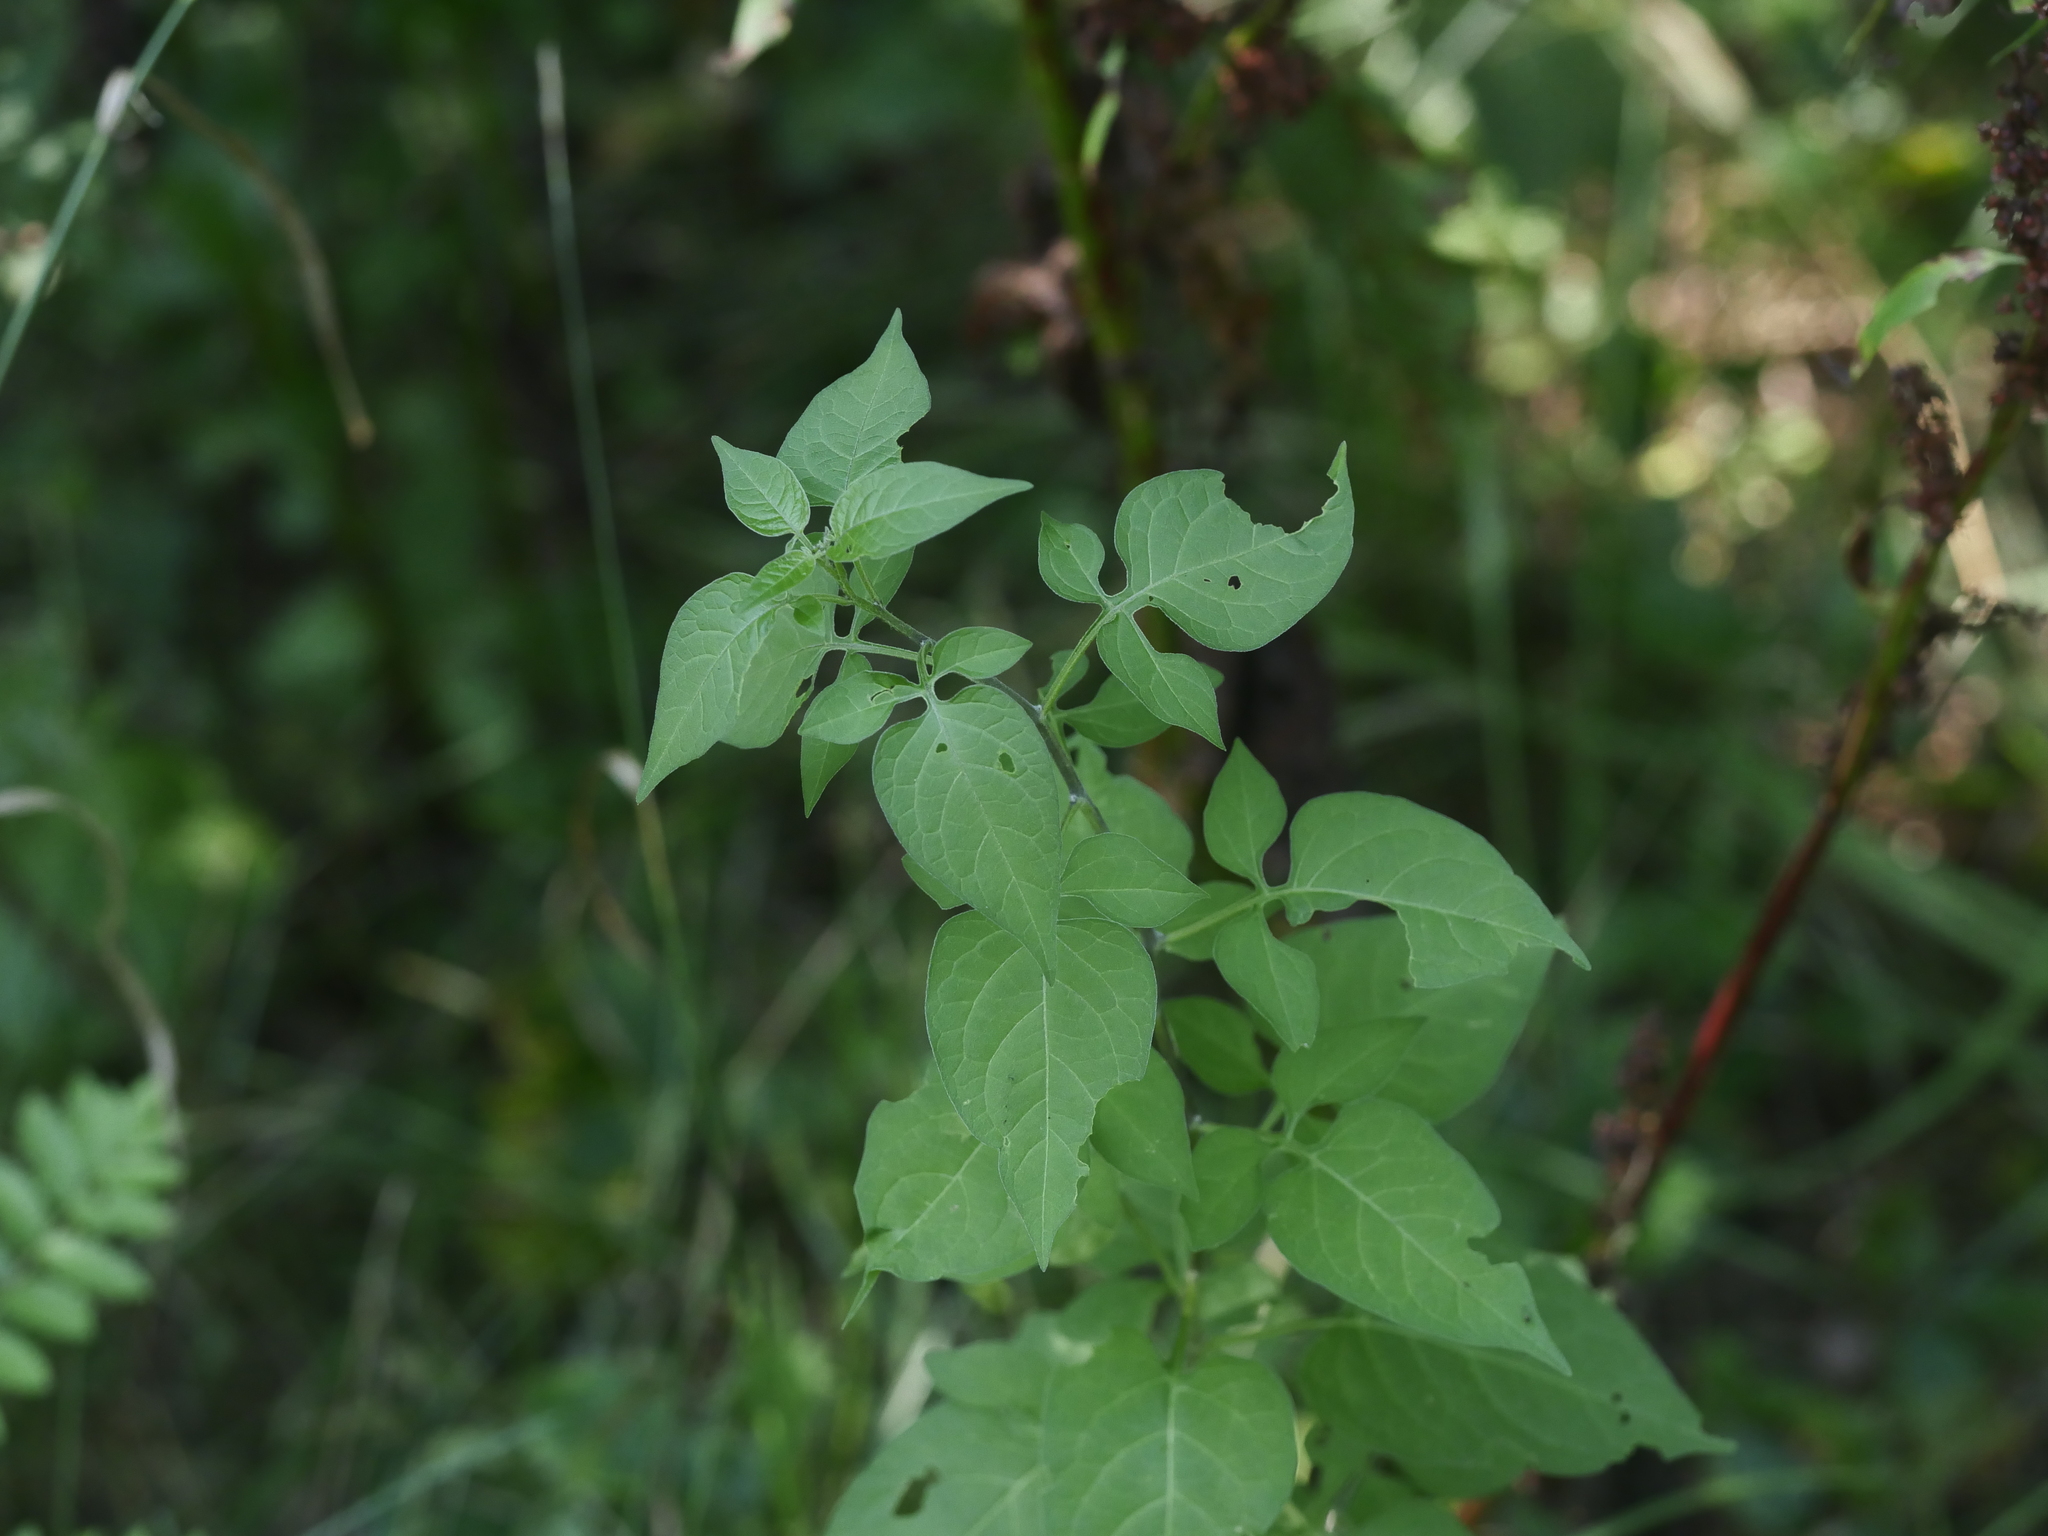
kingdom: Plantae
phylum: Tracheophyta
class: Magnoliopsida
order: Solanales
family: Solanaceae
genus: Solanum
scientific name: Solanum dulcamara
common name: Climbing nightshade
